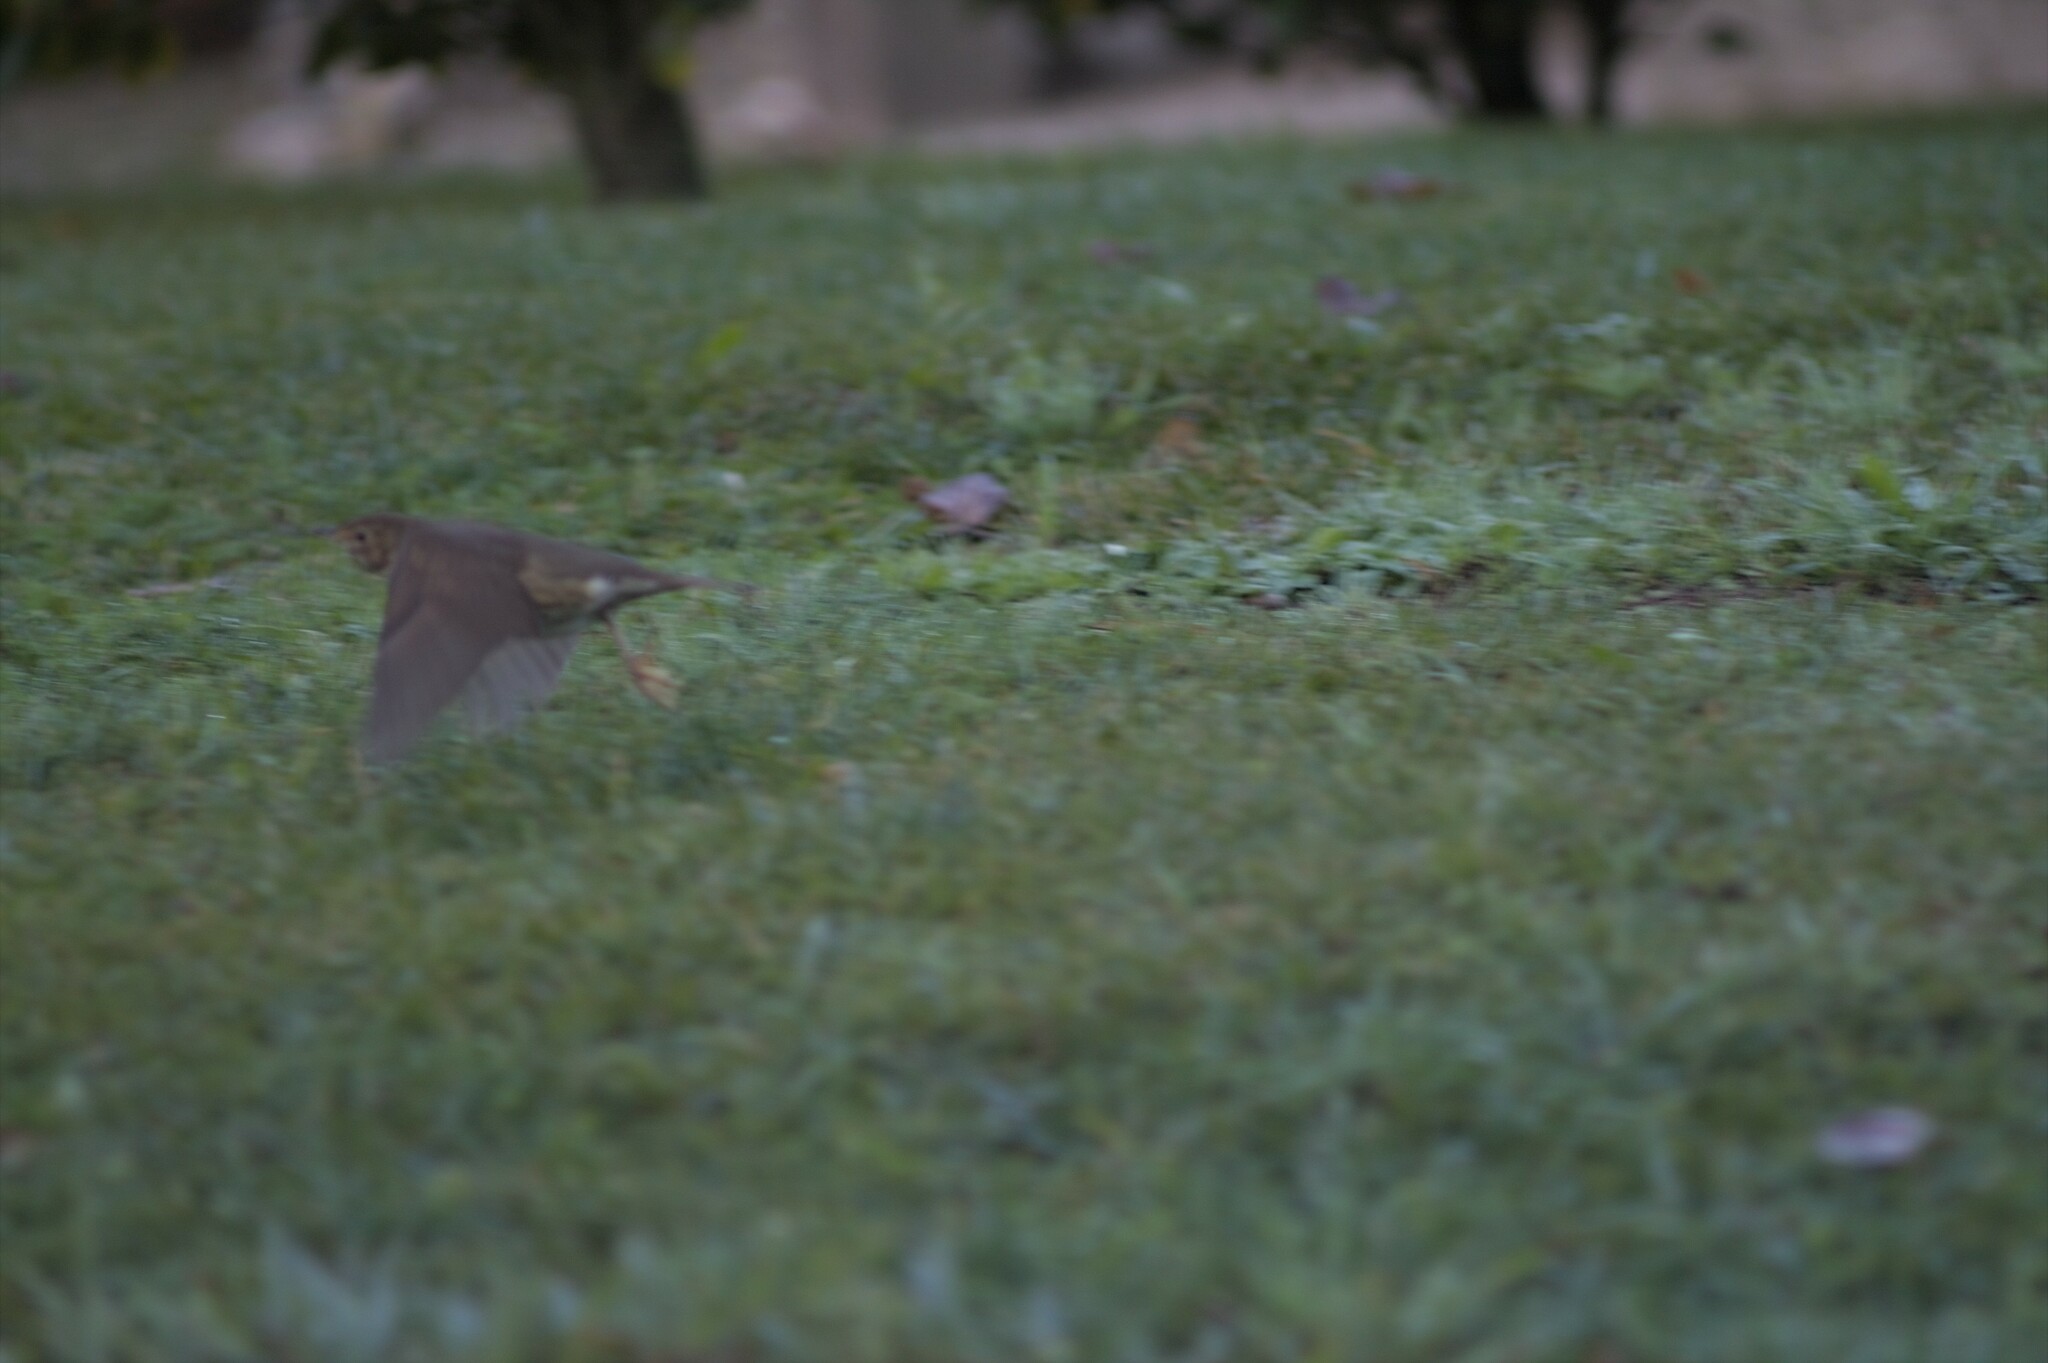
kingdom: Animalia
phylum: Chordata
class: Aves
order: Passeriformes
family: Turdidae
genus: Turdus
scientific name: Turdus philomelos
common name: Song thrush
